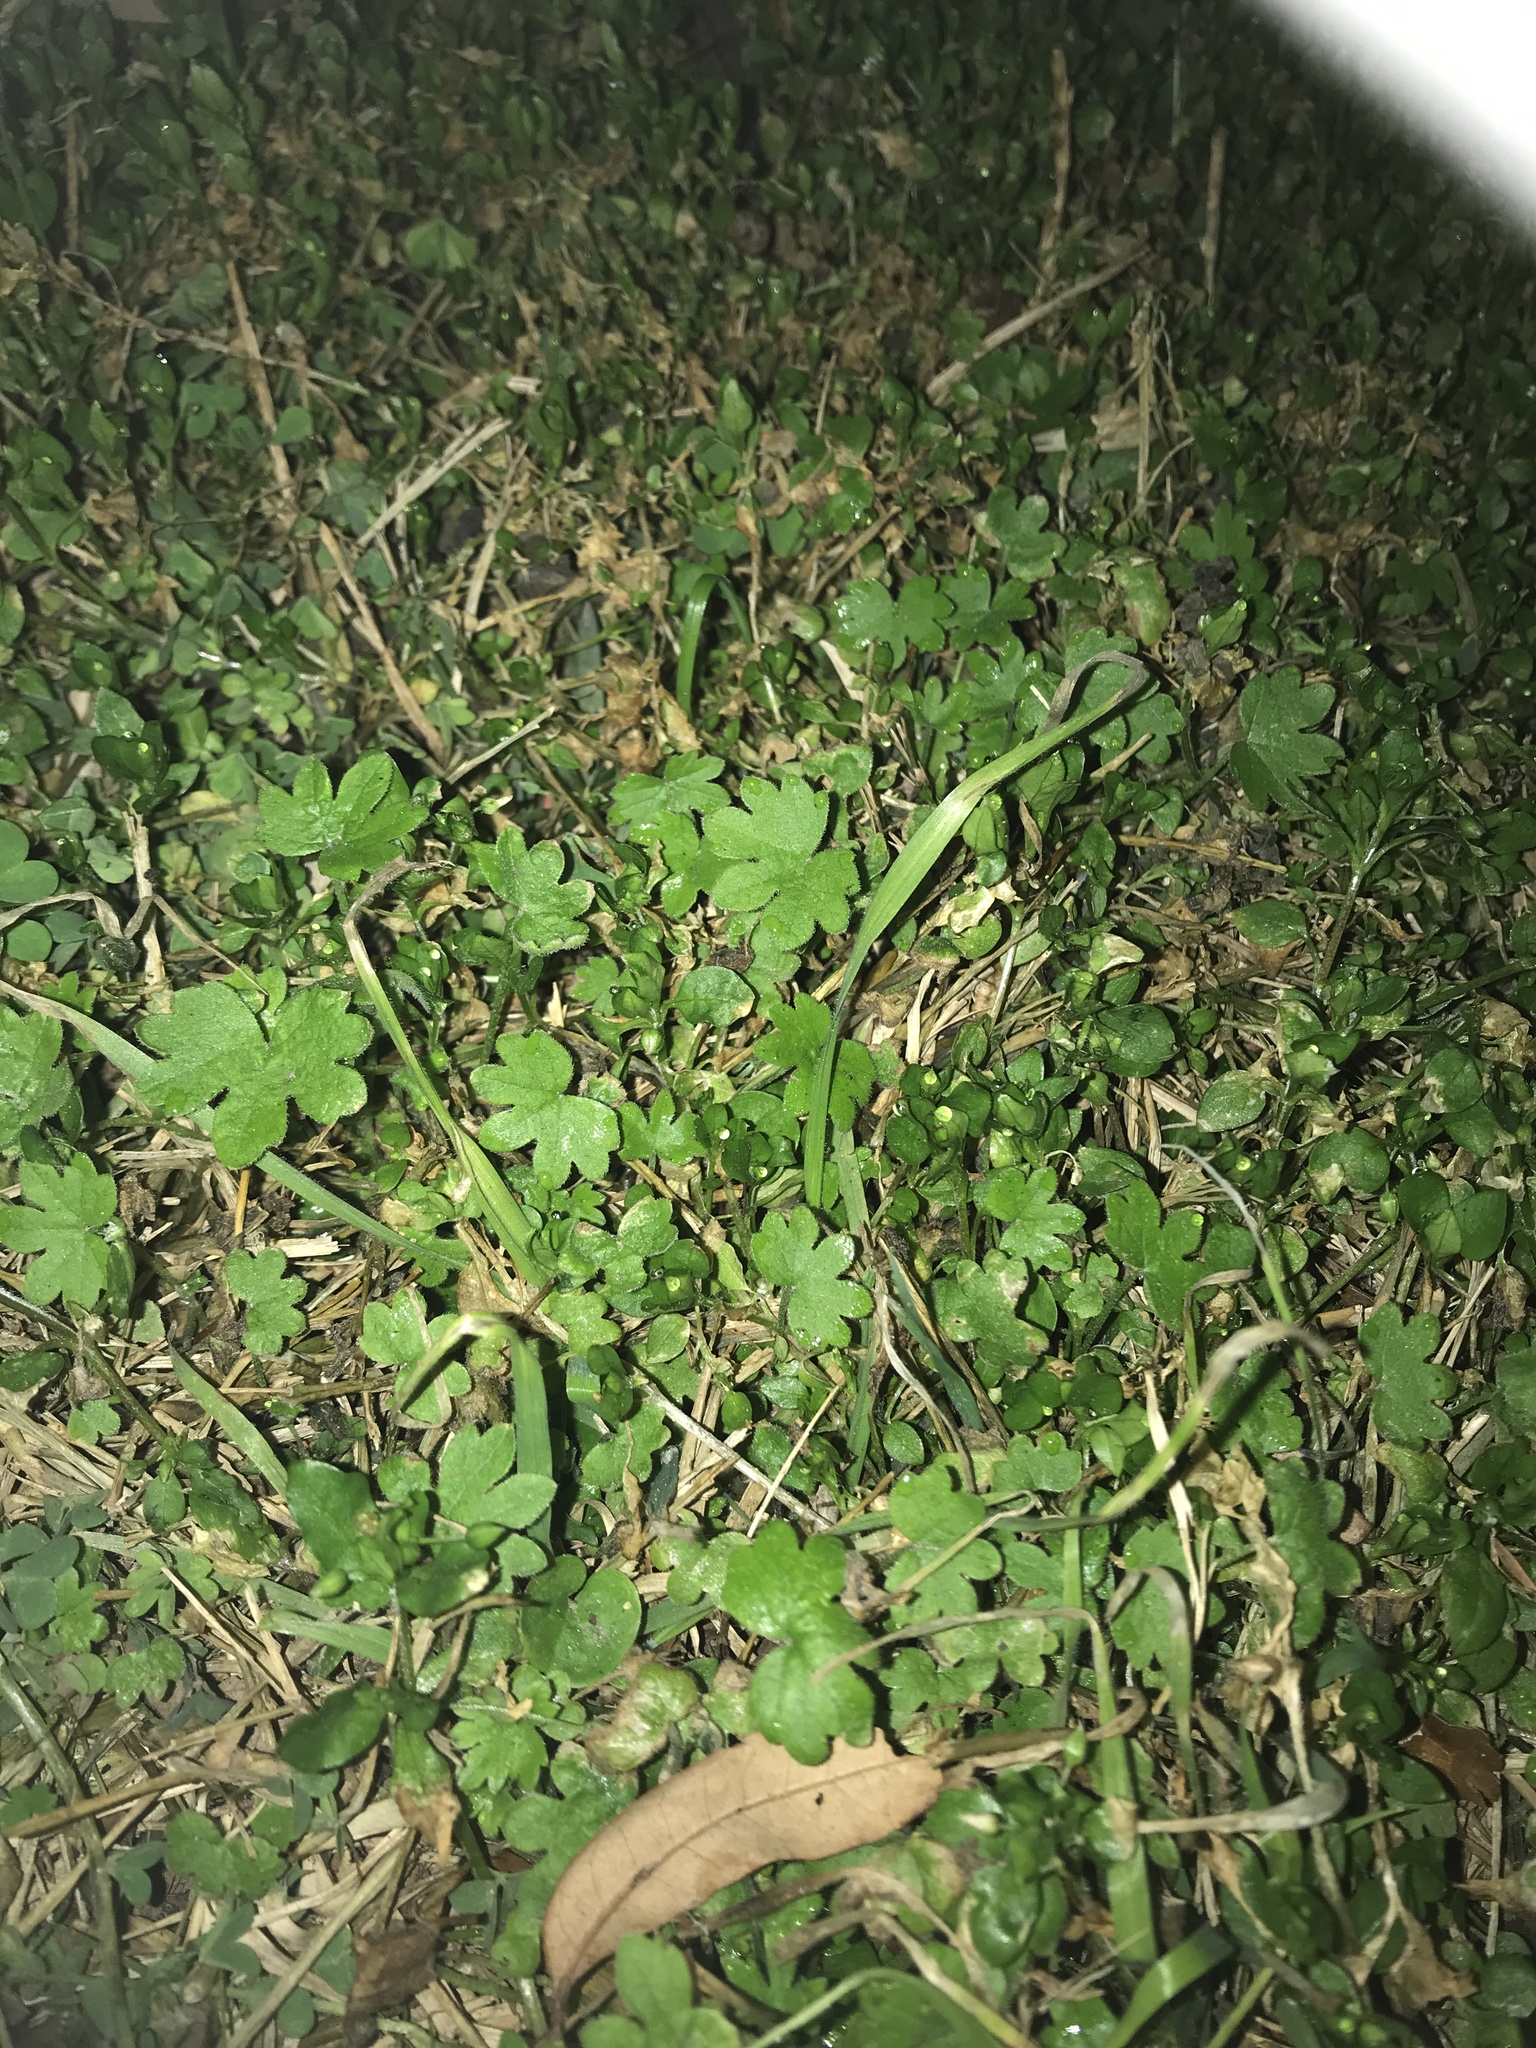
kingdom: Plantae
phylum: Tracheophyta
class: Magnoliopsida
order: Apiales
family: Apiaceae
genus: Bowlesia
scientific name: Bowlesia incana
